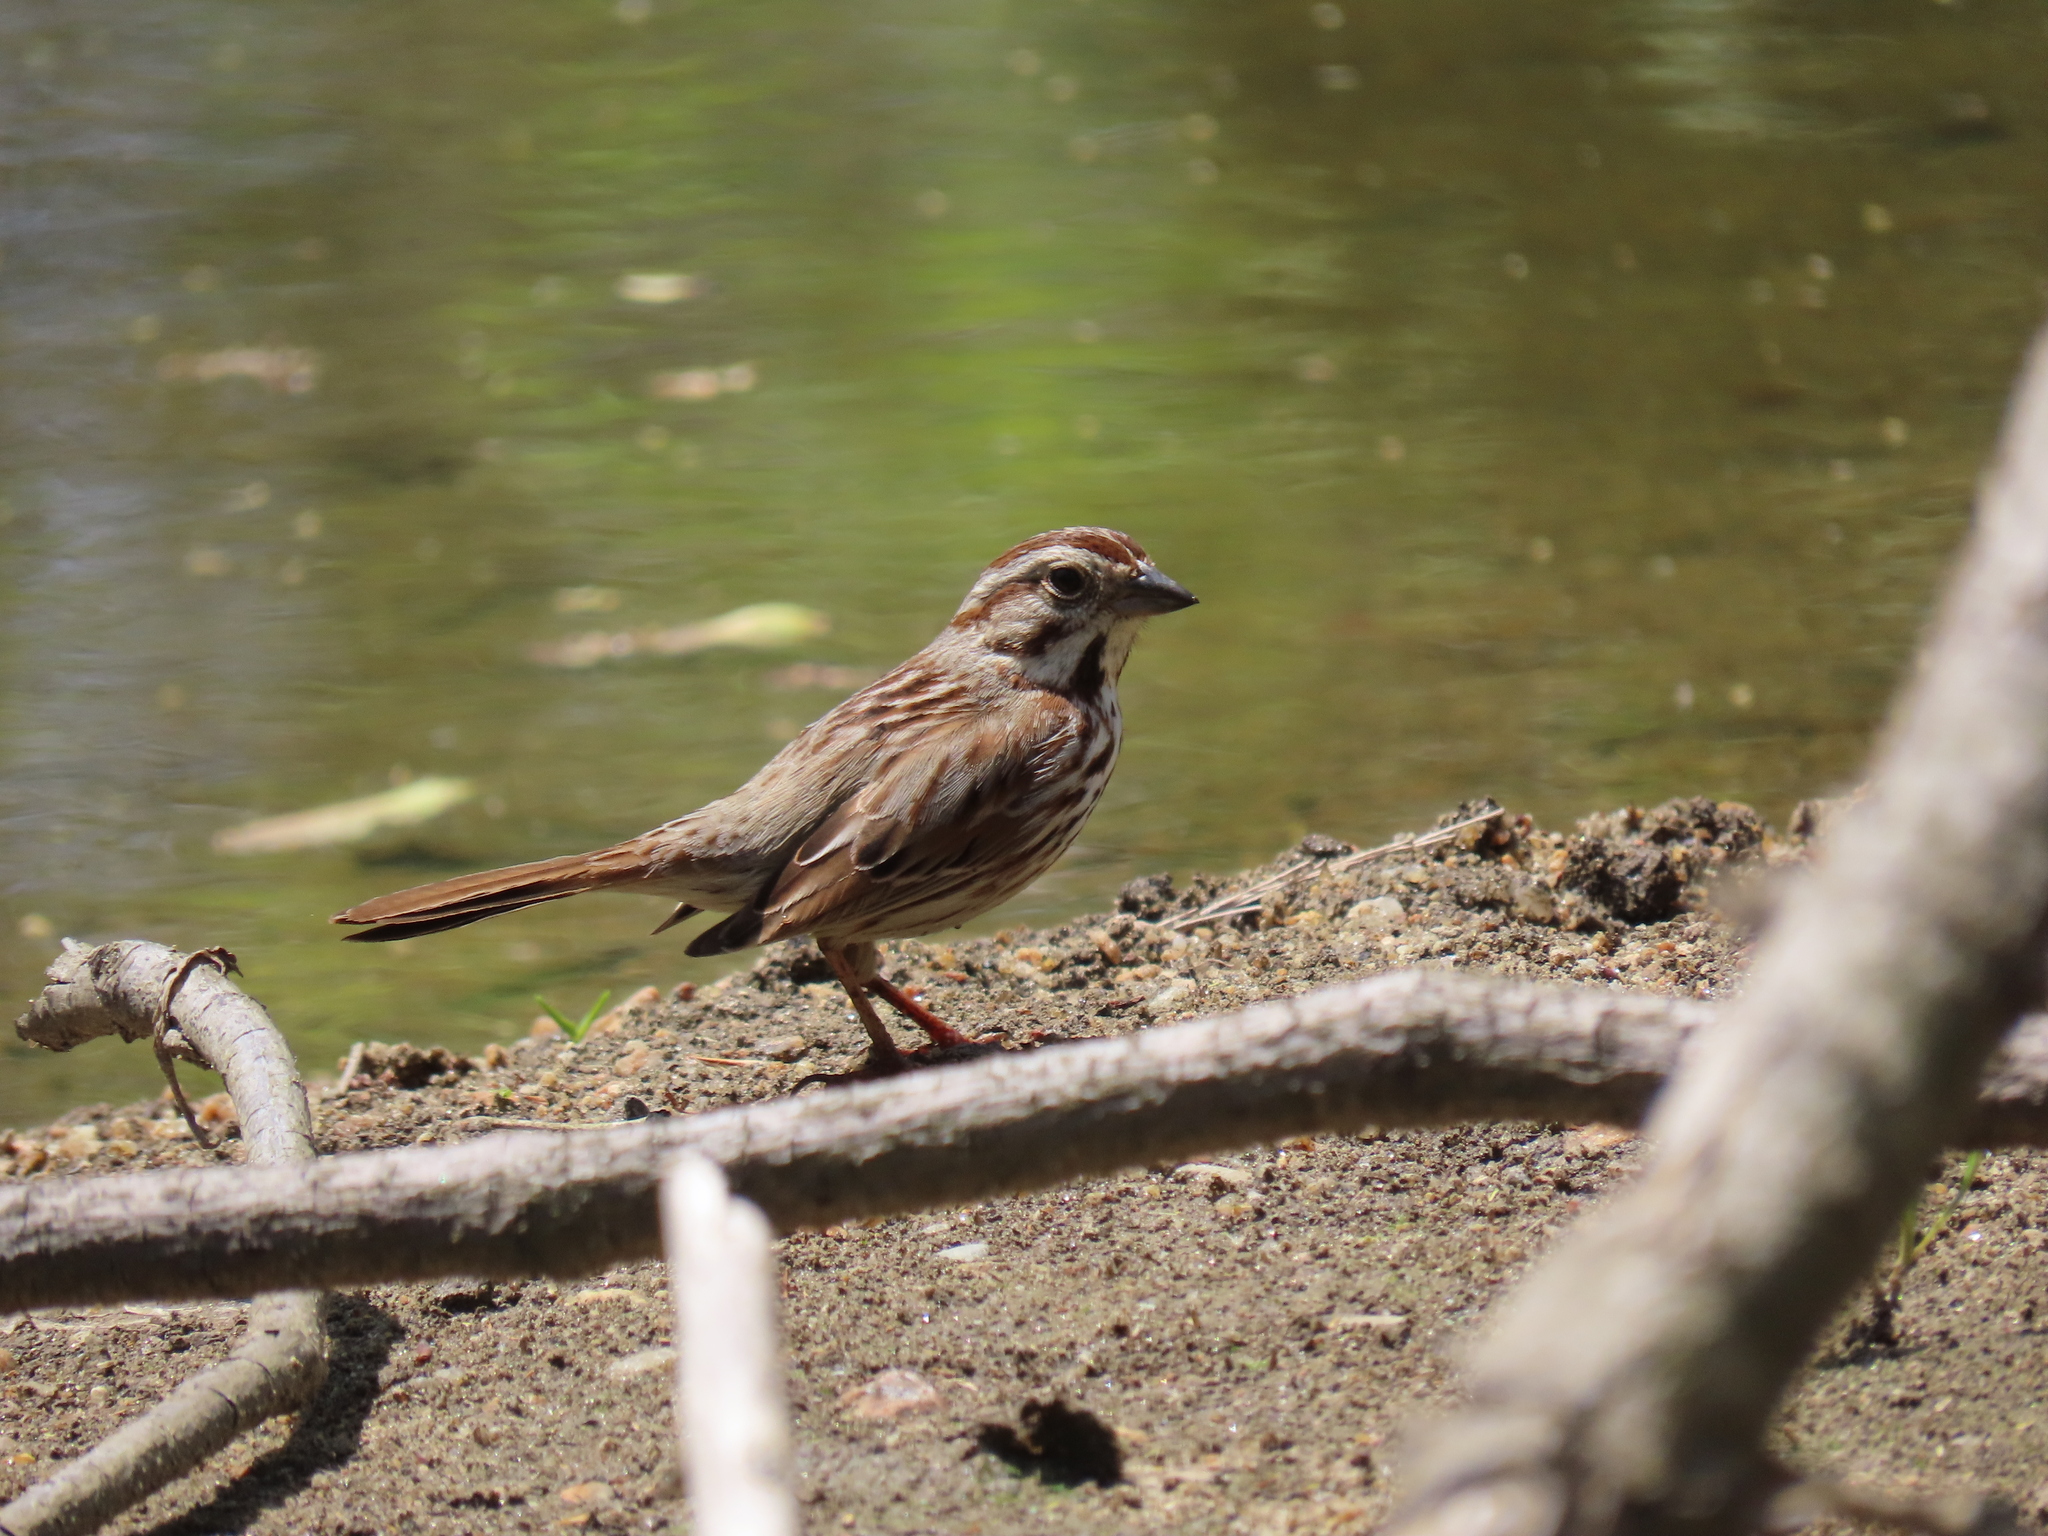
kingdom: Animalia
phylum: Chordata
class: Aves
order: Passeriformes
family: Passerellidae
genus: Melospiza
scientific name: Melospiza melodia
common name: Song sparrow
